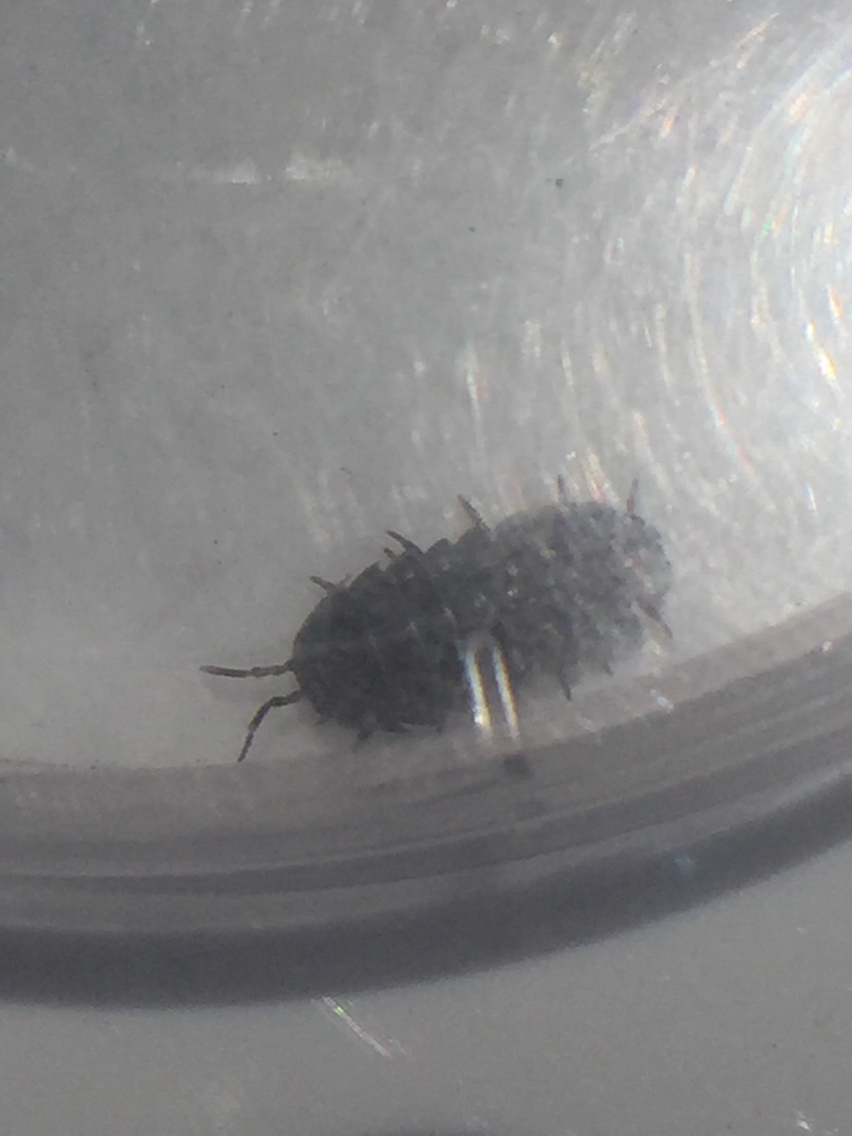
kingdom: Animalia
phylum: Arthropoda
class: Malacostraca
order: Isopoda
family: Armadillidiidae
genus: Armadillidium
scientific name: Armadillidium vulgare
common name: Common pill woodlouse
